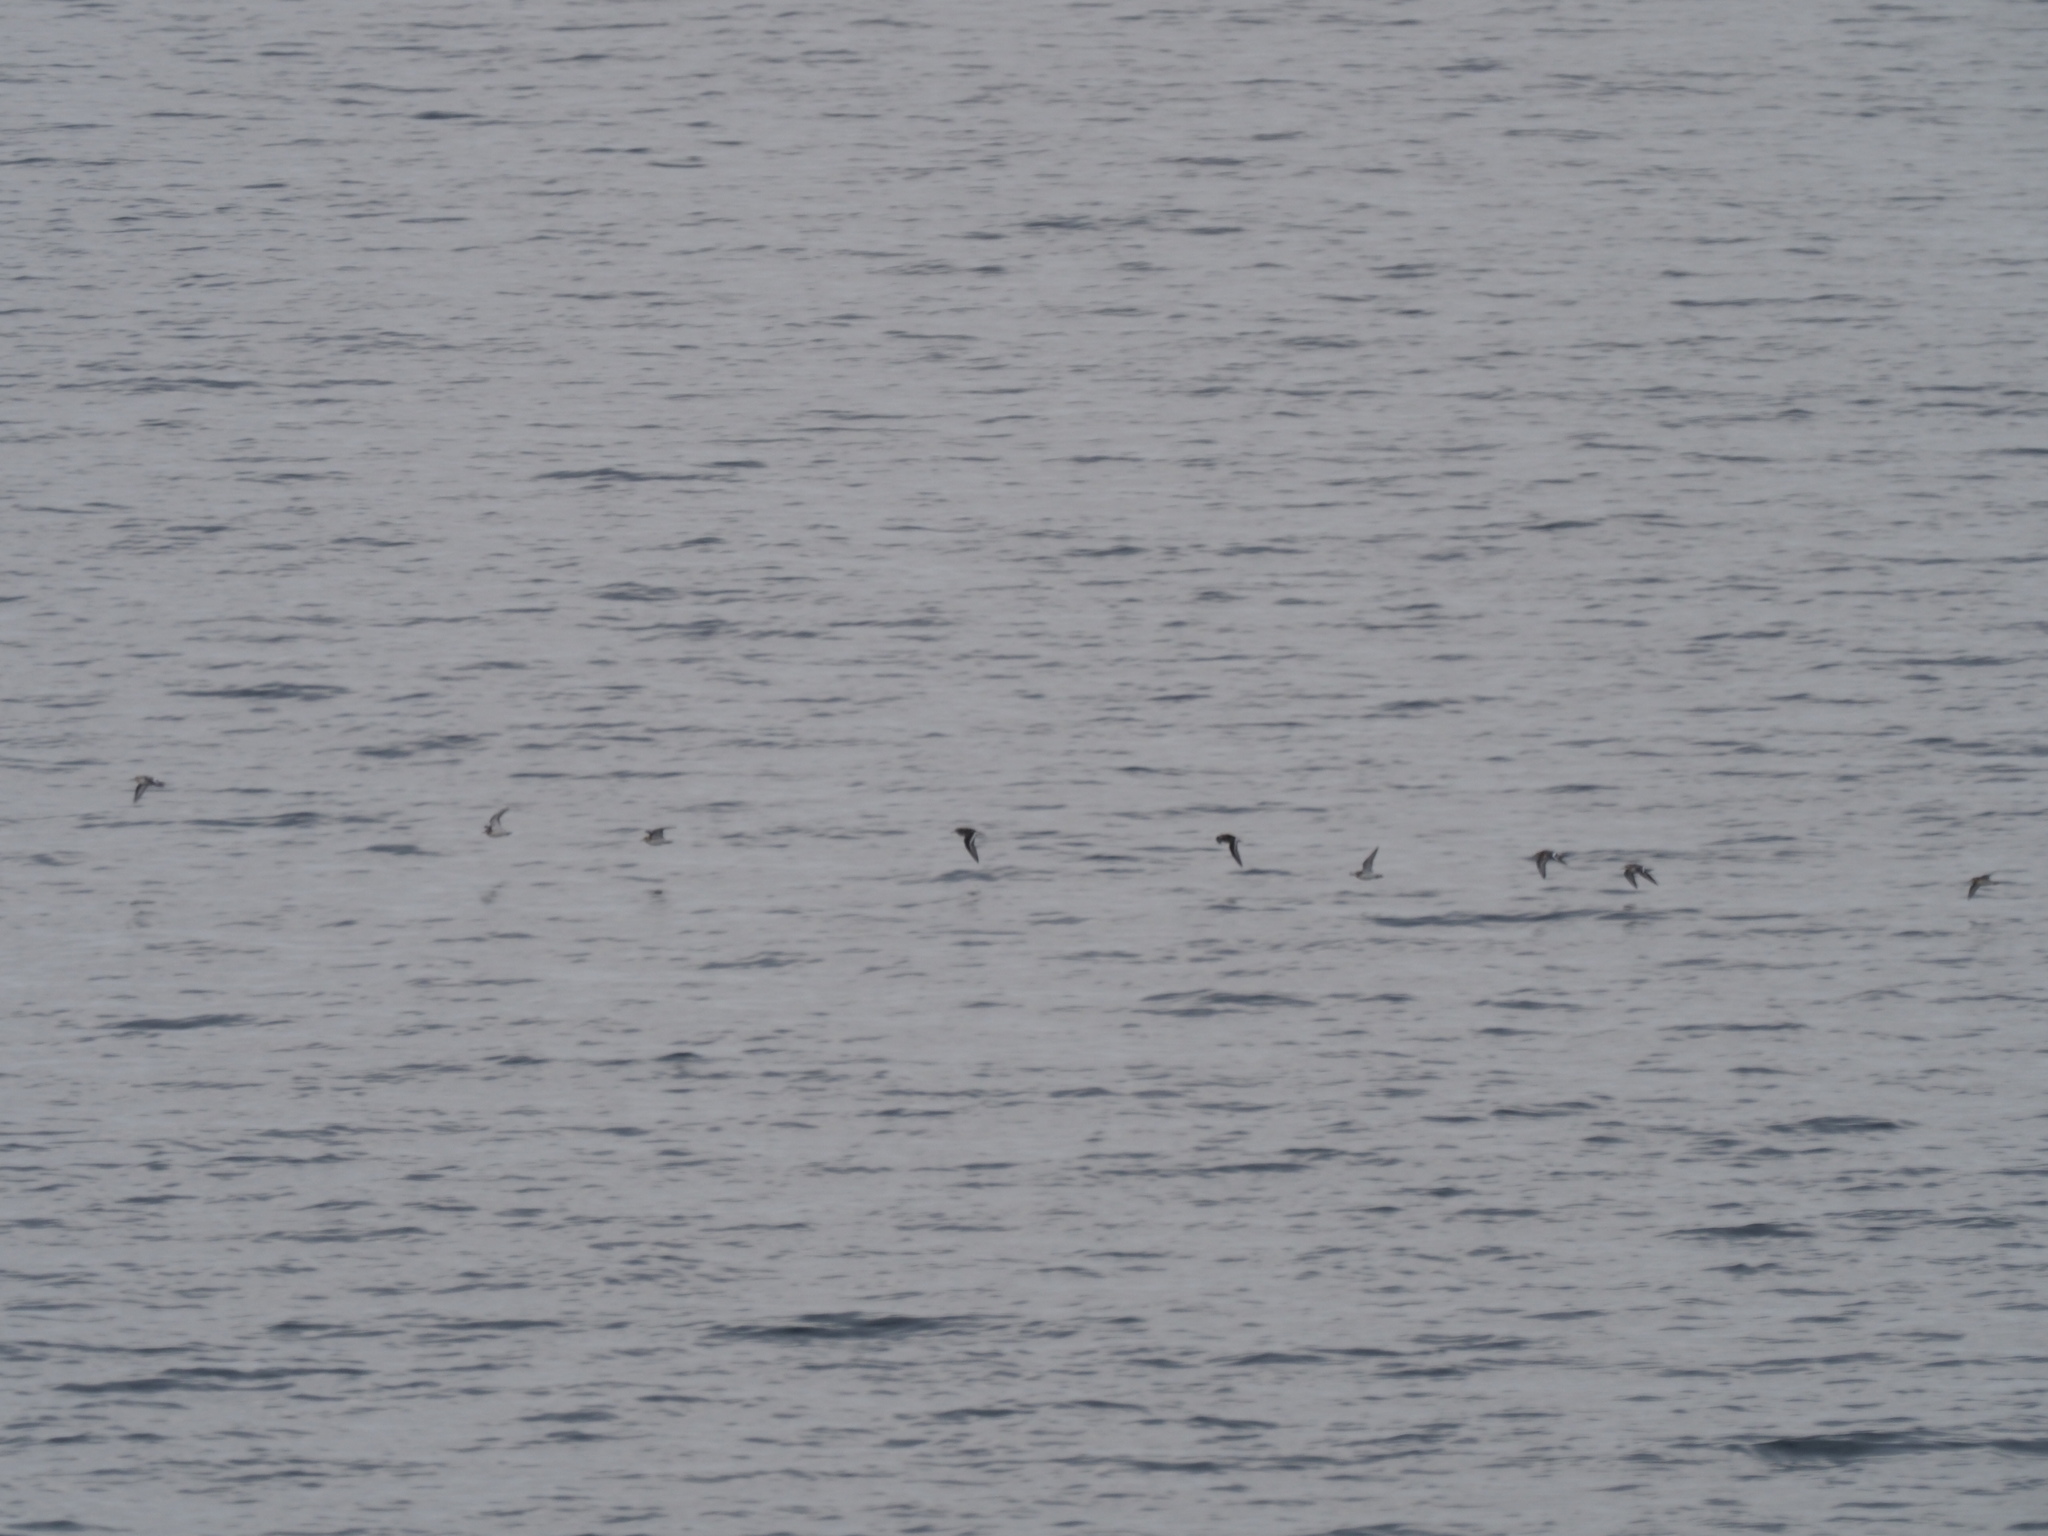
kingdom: Animalia
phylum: Chordata
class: Aves
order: Charadriiformes
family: Scolopacidae
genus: Phalaropus
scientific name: Phalaropus fulicarius
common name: Red phalarope
